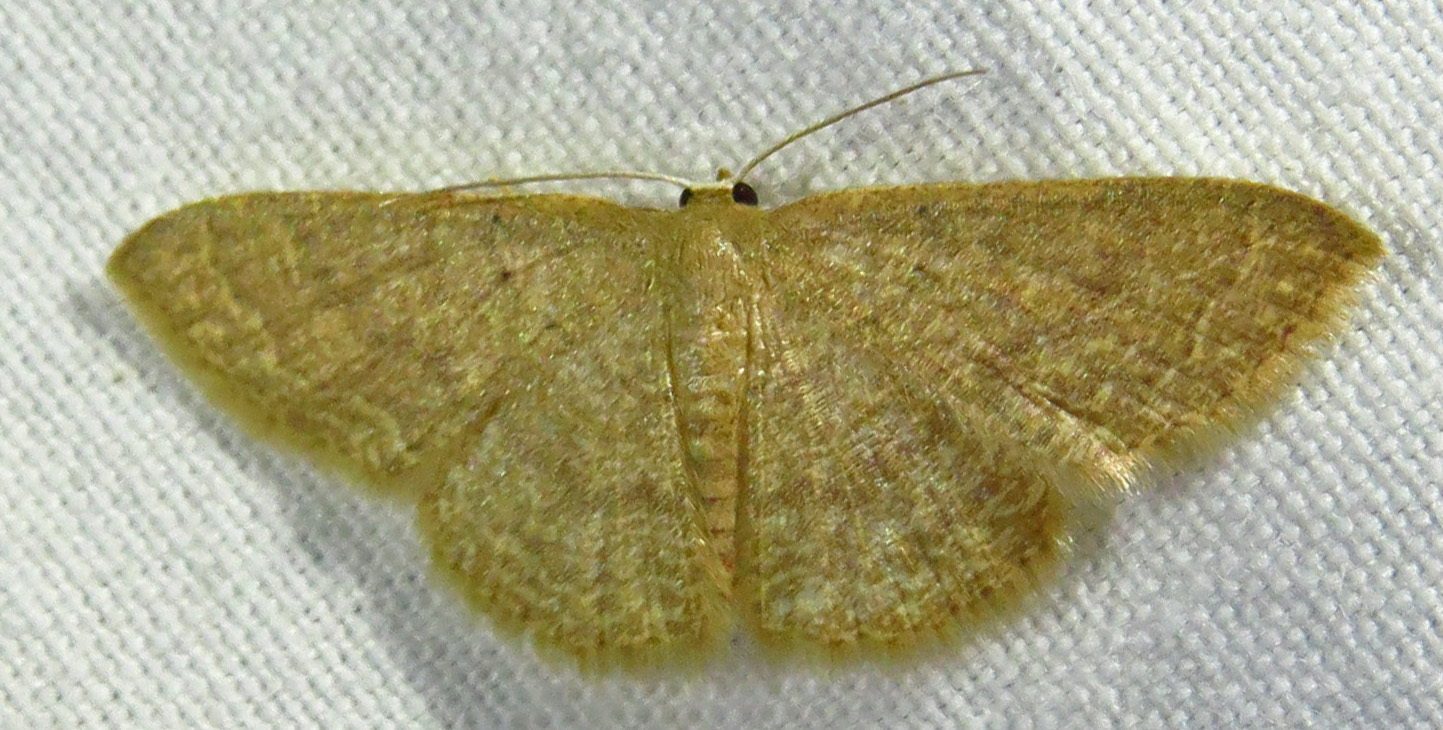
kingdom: Animalia
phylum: Arthropoda
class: Insecta
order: Lepidoptera
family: Geometridae
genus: Pleuroprucha
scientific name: Pleuroprucha insulsaria
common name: Common tan wave
